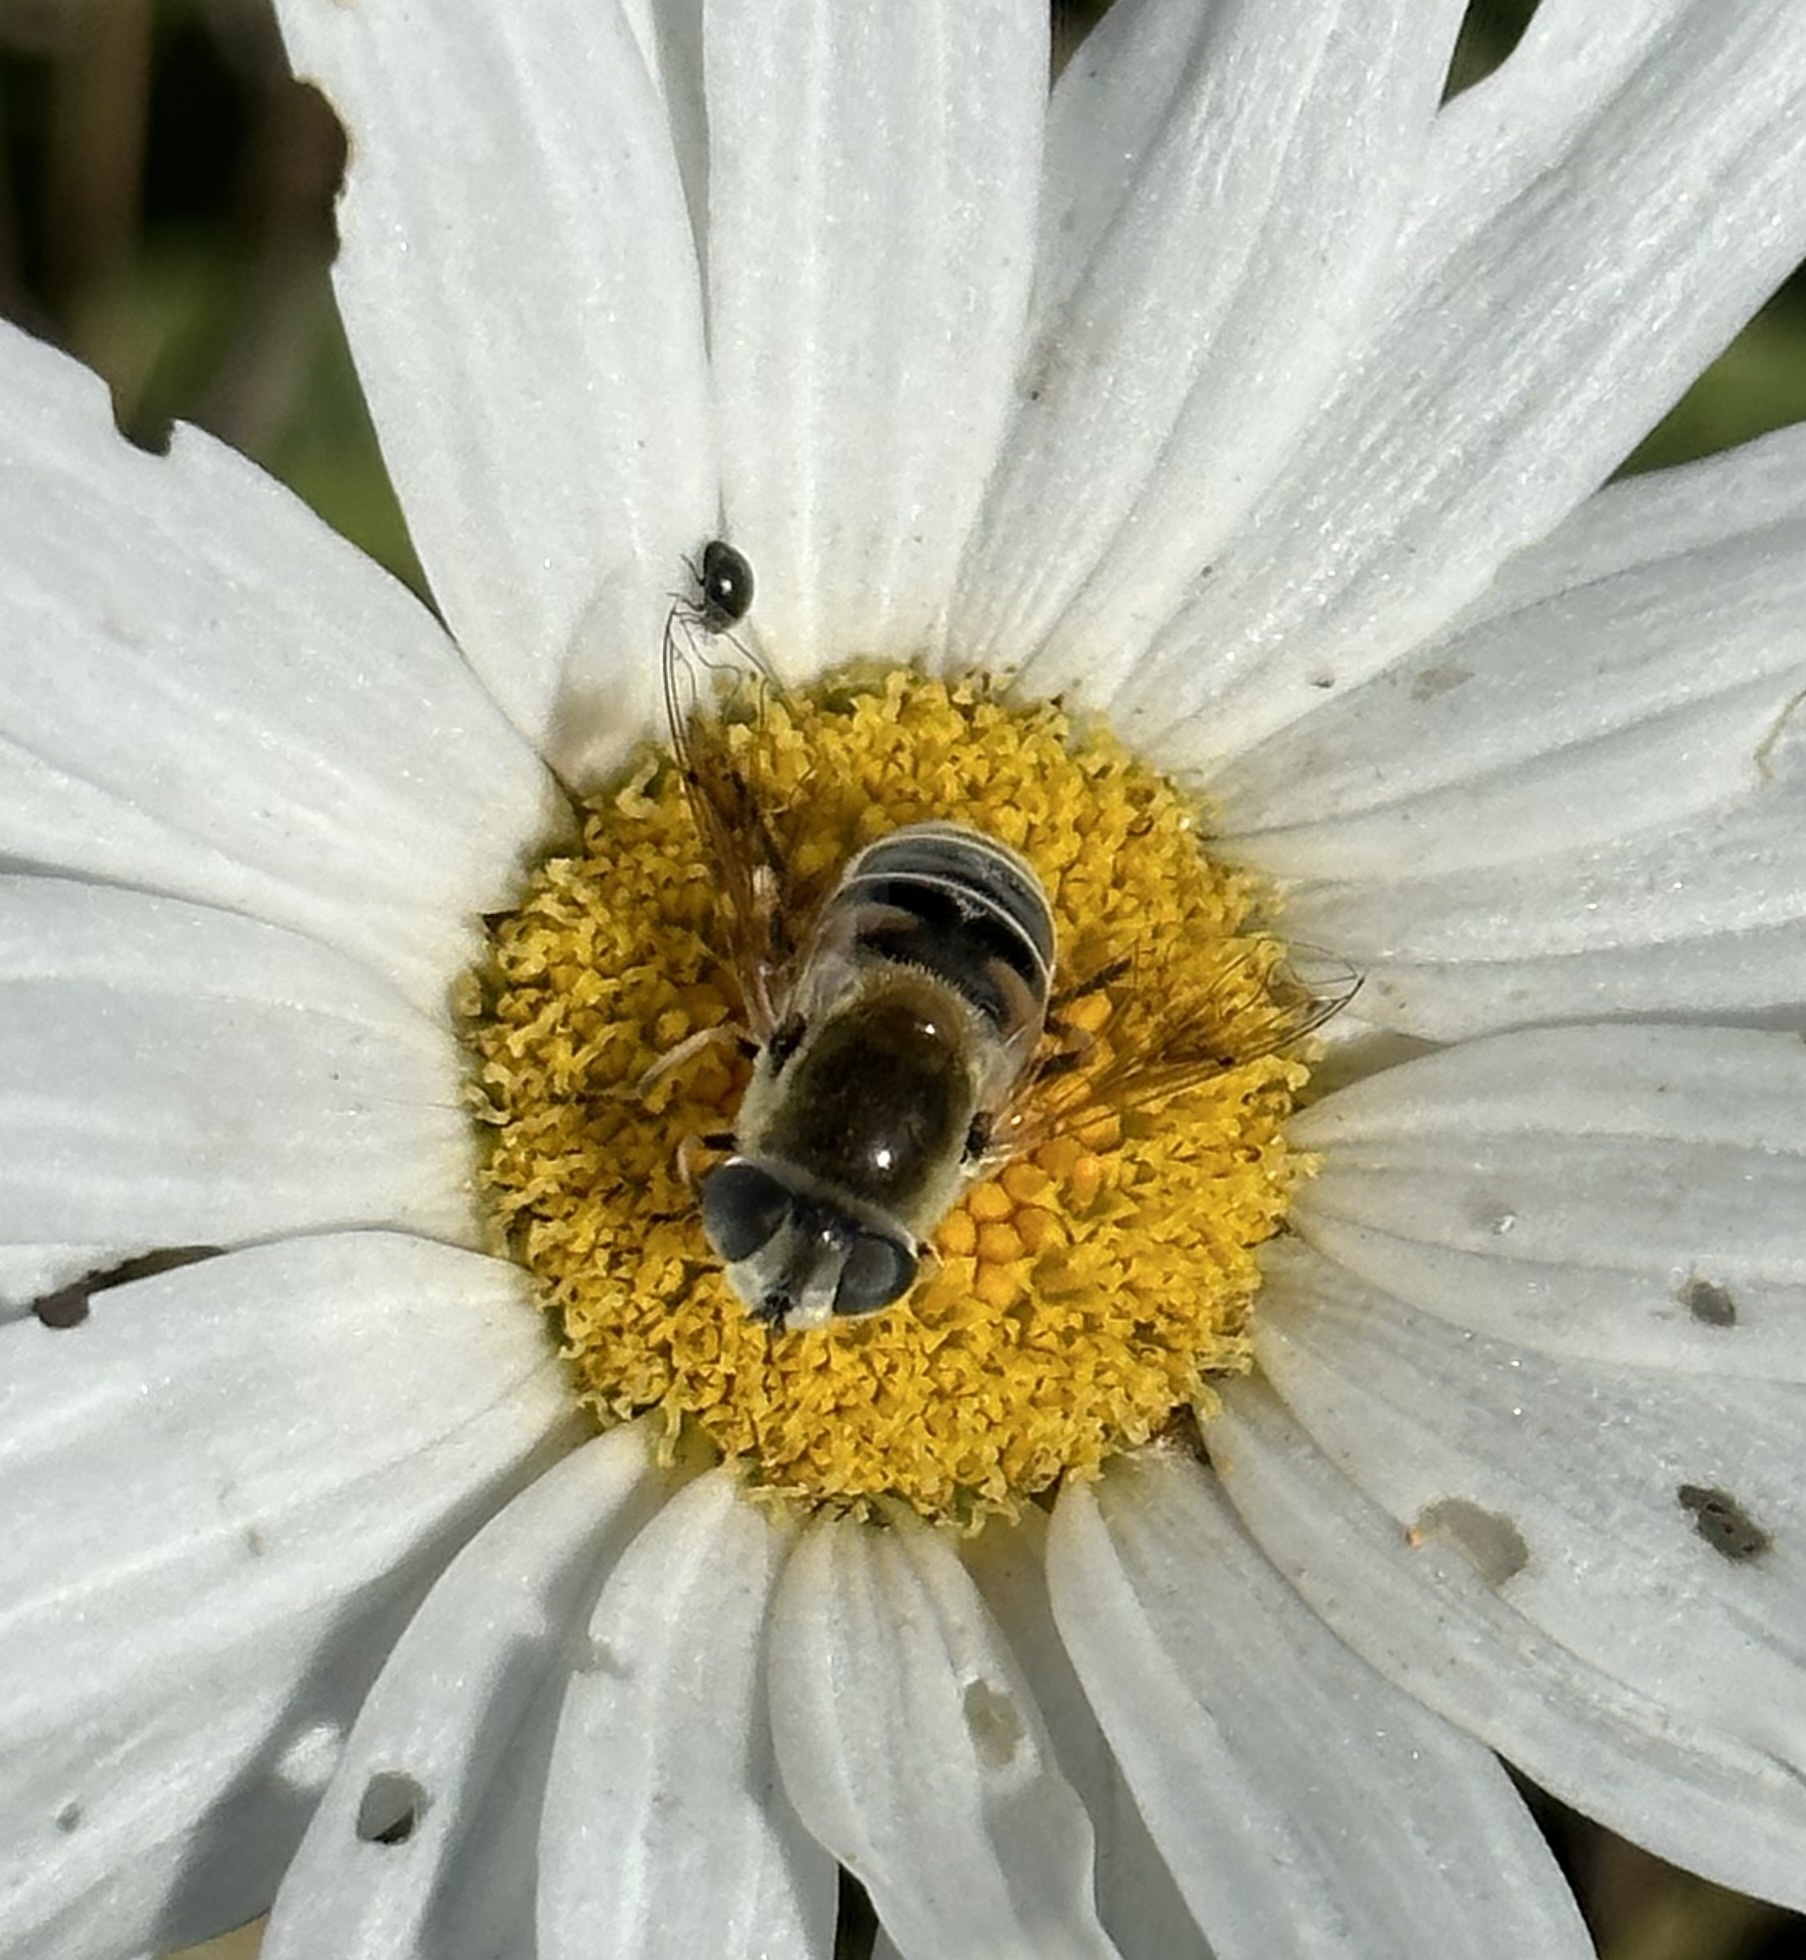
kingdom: Animalia
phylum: Arthropoda
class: Insecta
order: Diptera
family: Syrphidae
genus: Eristalis
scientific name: Eristalis stipator
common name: Yellow-shouldered drone fly
